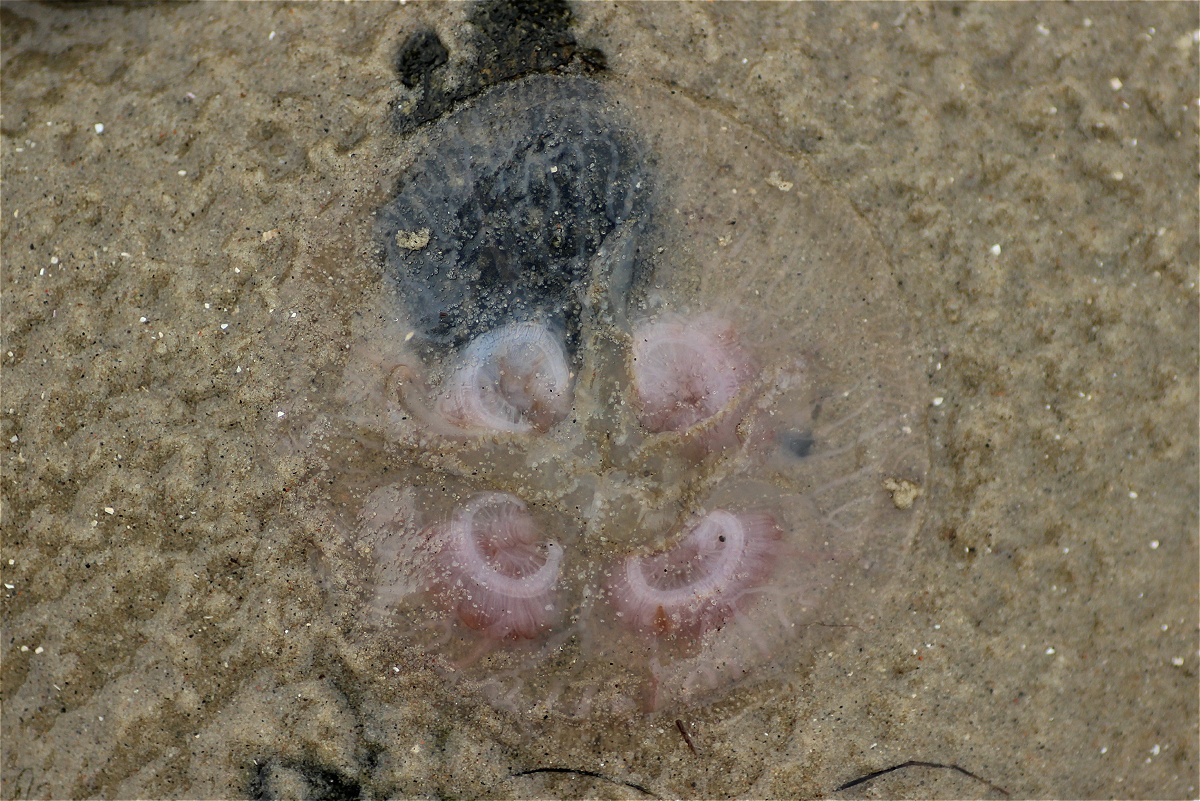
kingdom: Animalia
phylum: Cnidaria
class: Scyphozoa
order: Semaeostomeae
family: Ulmaridae
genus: Aurelia
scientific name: Aurelia aurita
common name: Moon jellyfish
